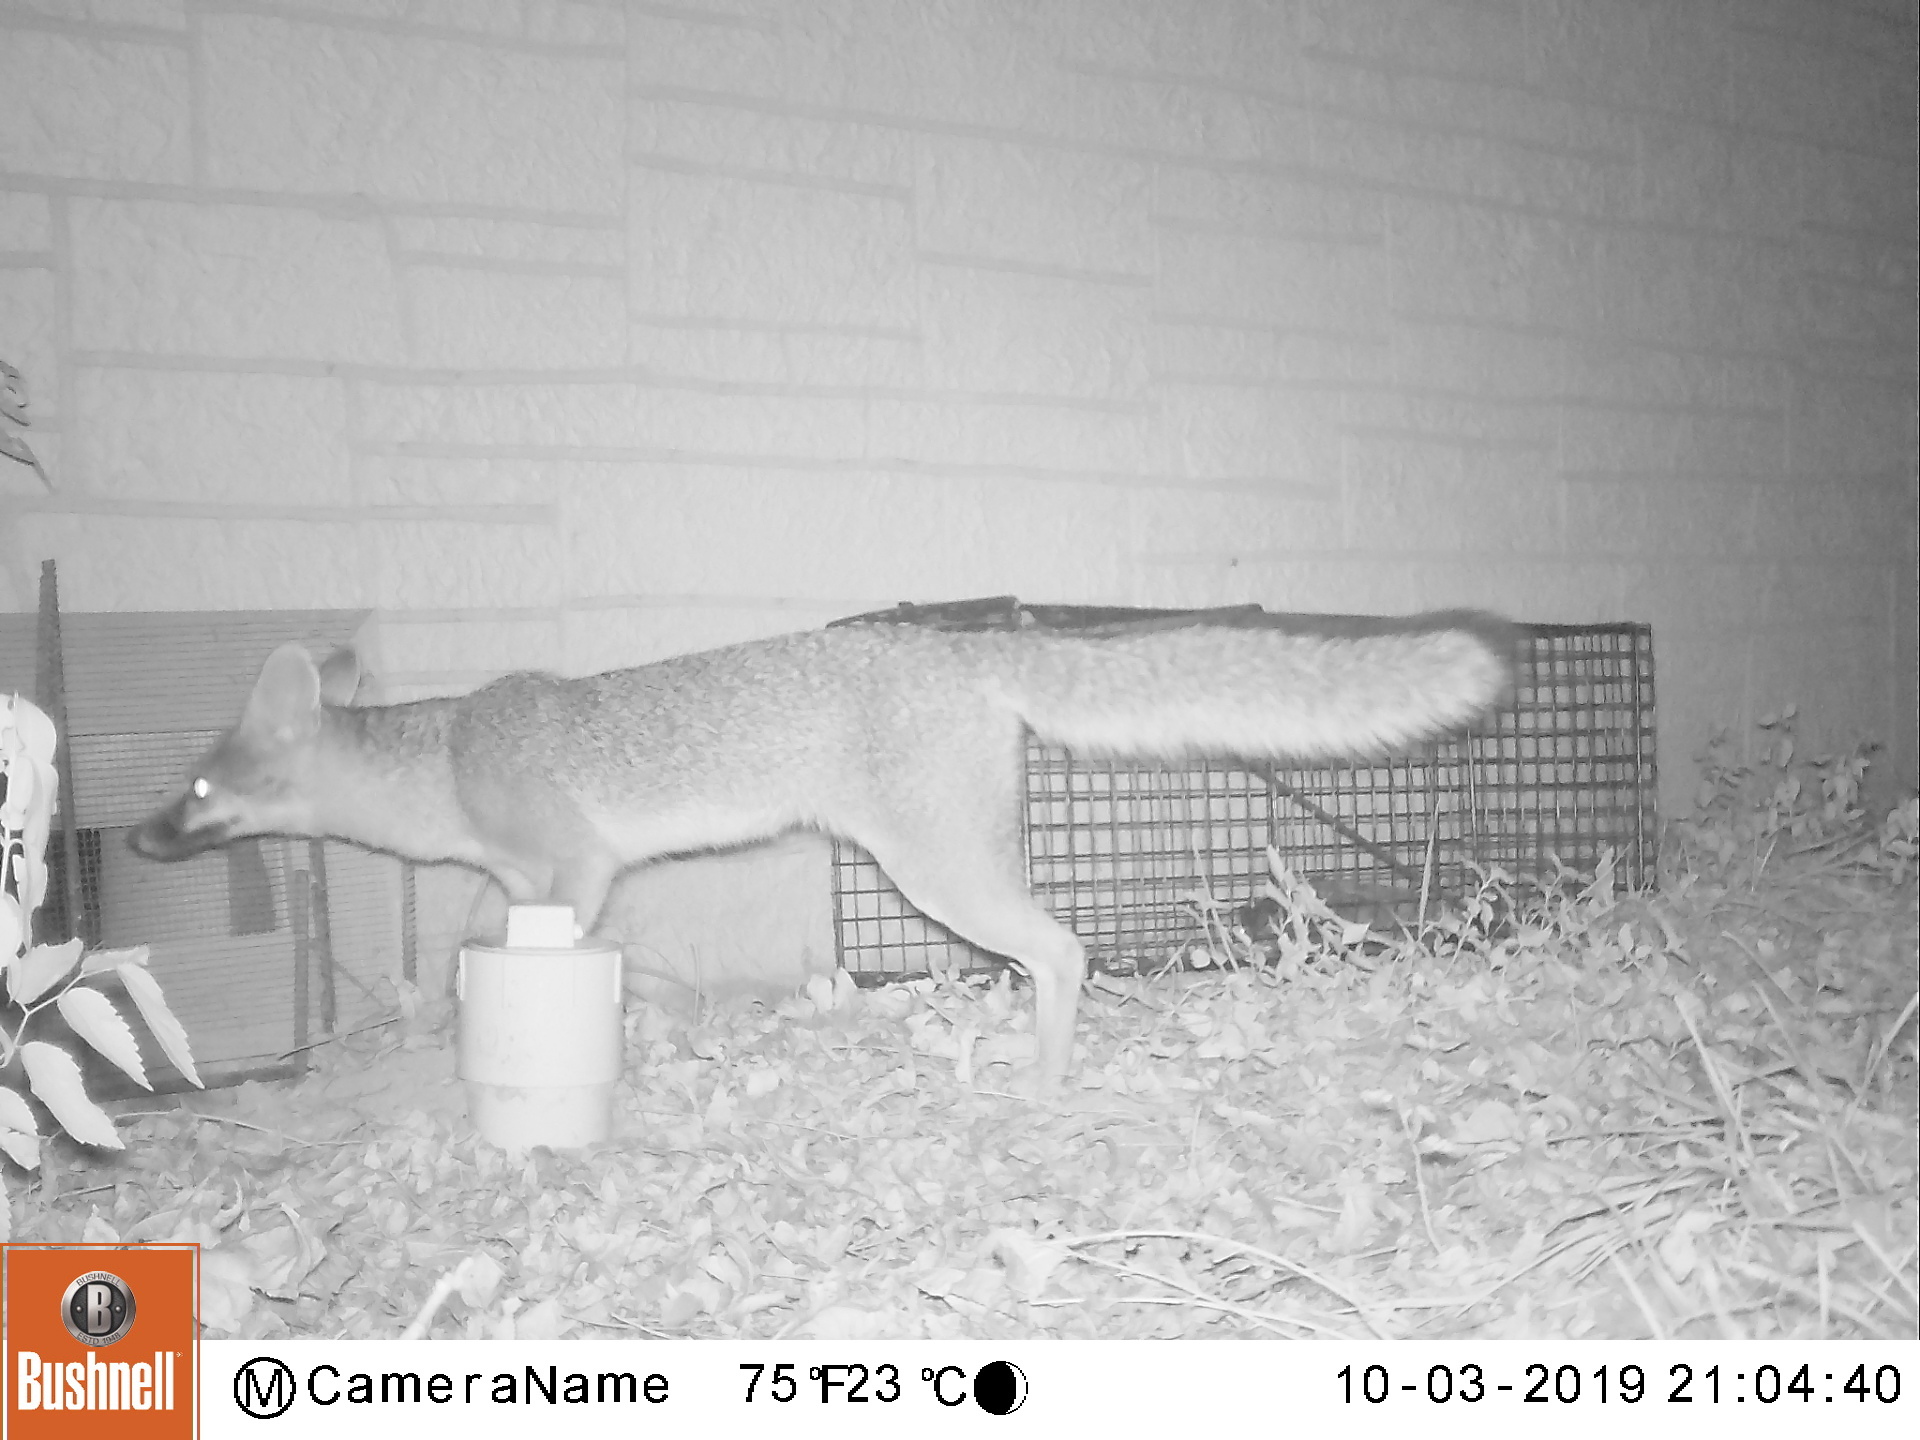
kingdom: Animalia
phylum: Chordata
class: Mammalia
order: Carnivora
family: Canidae
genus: Urocyon
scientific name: Urocyon cinereoargenteus
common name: Gray fox
